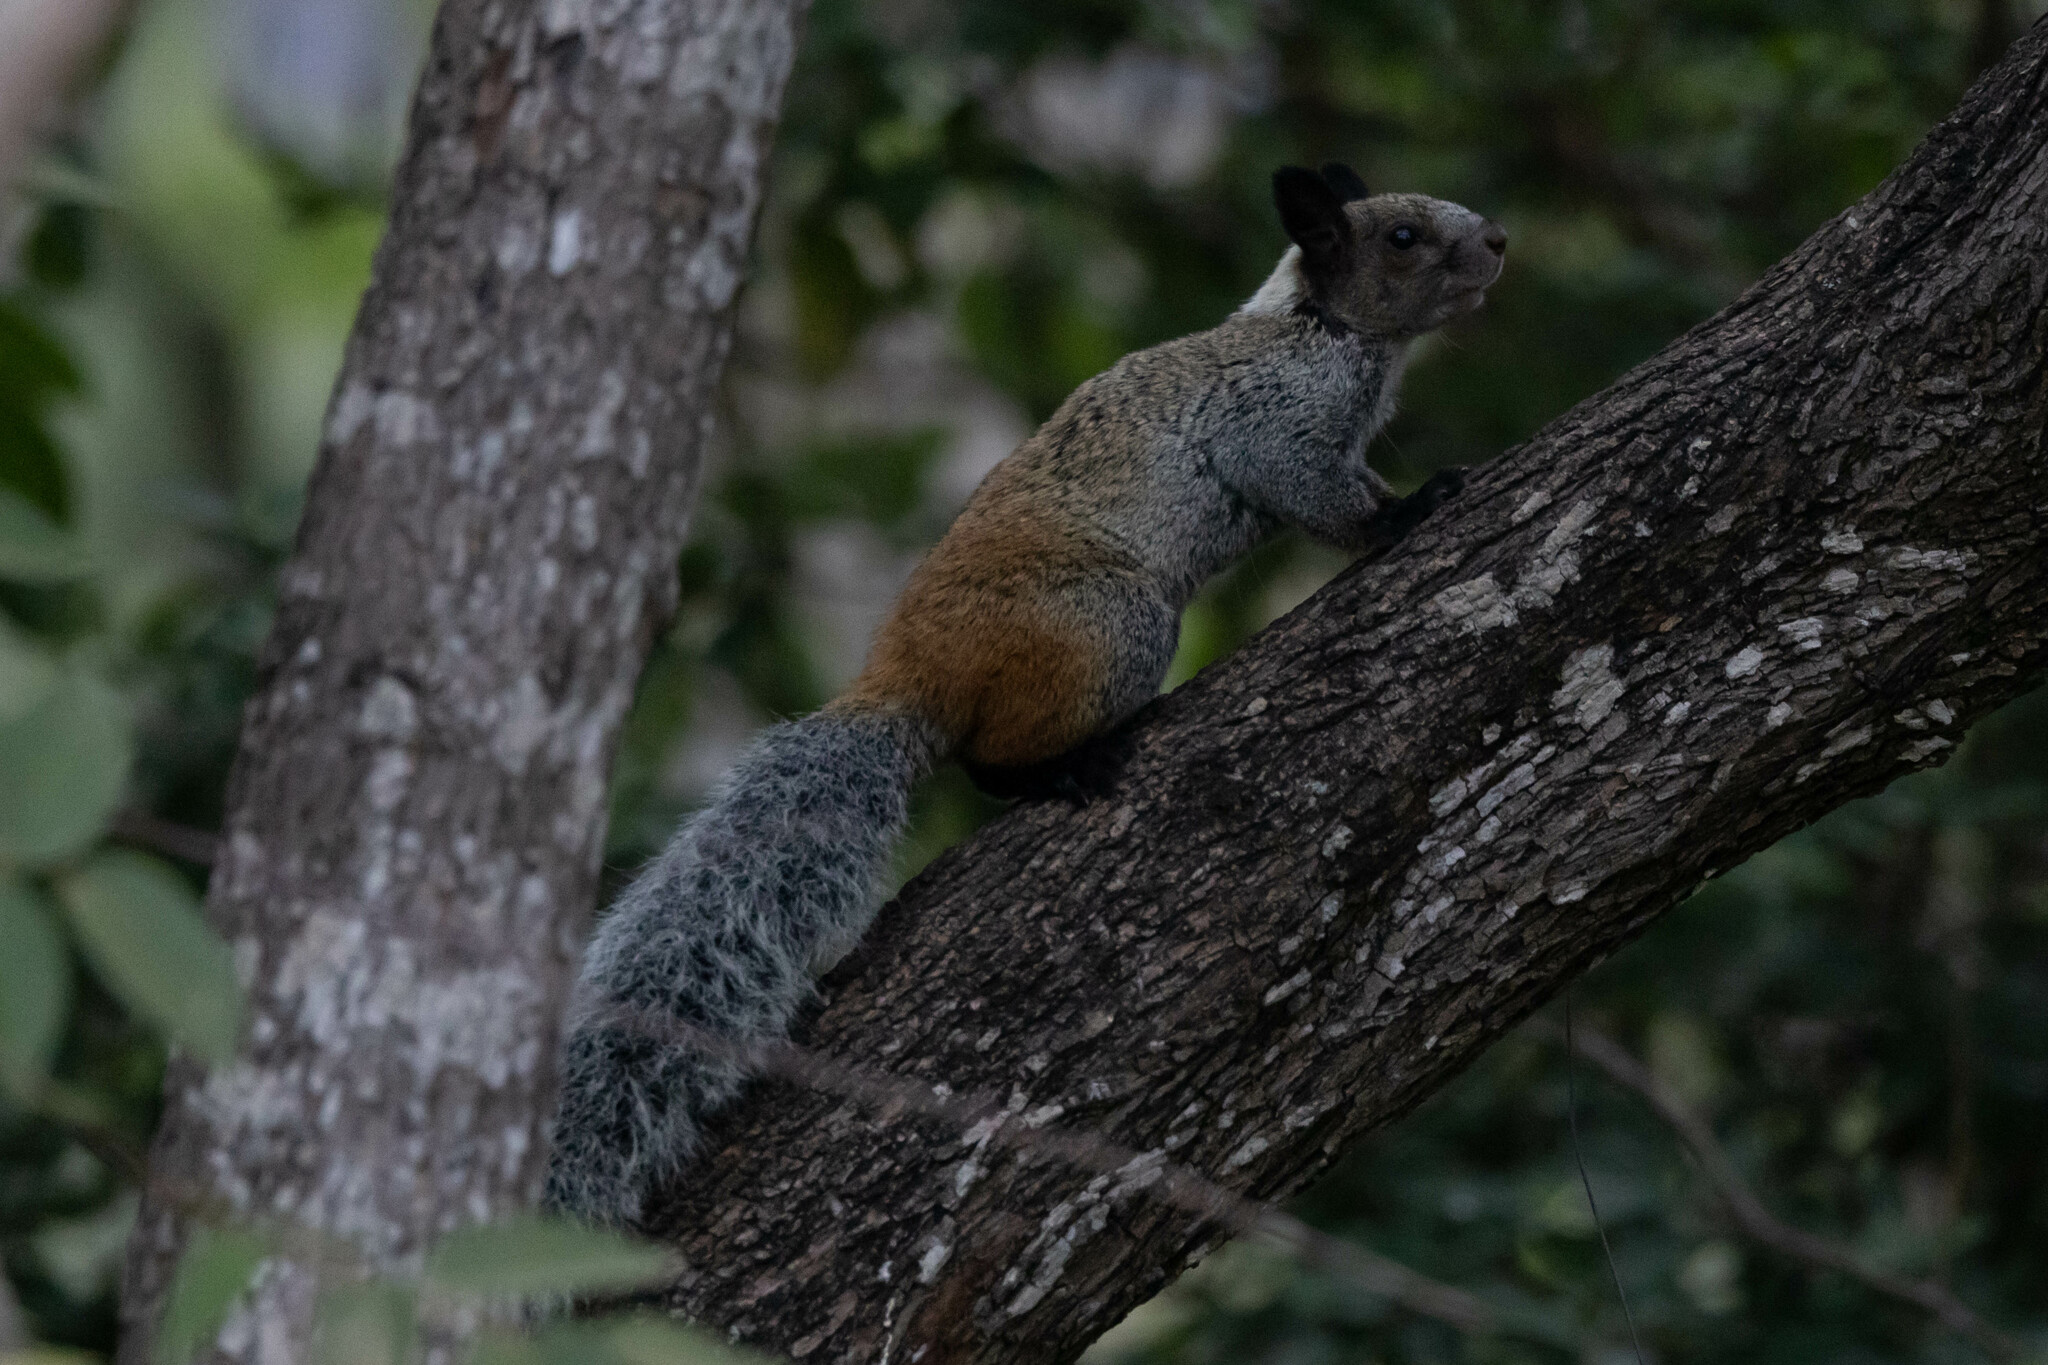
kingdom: Animalia
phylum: Chordata
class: Mammalia
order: Rodentia
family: Sciuridae
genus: Sciurus
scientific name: Sciurus stramineus
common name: Guayaquil squirrel
